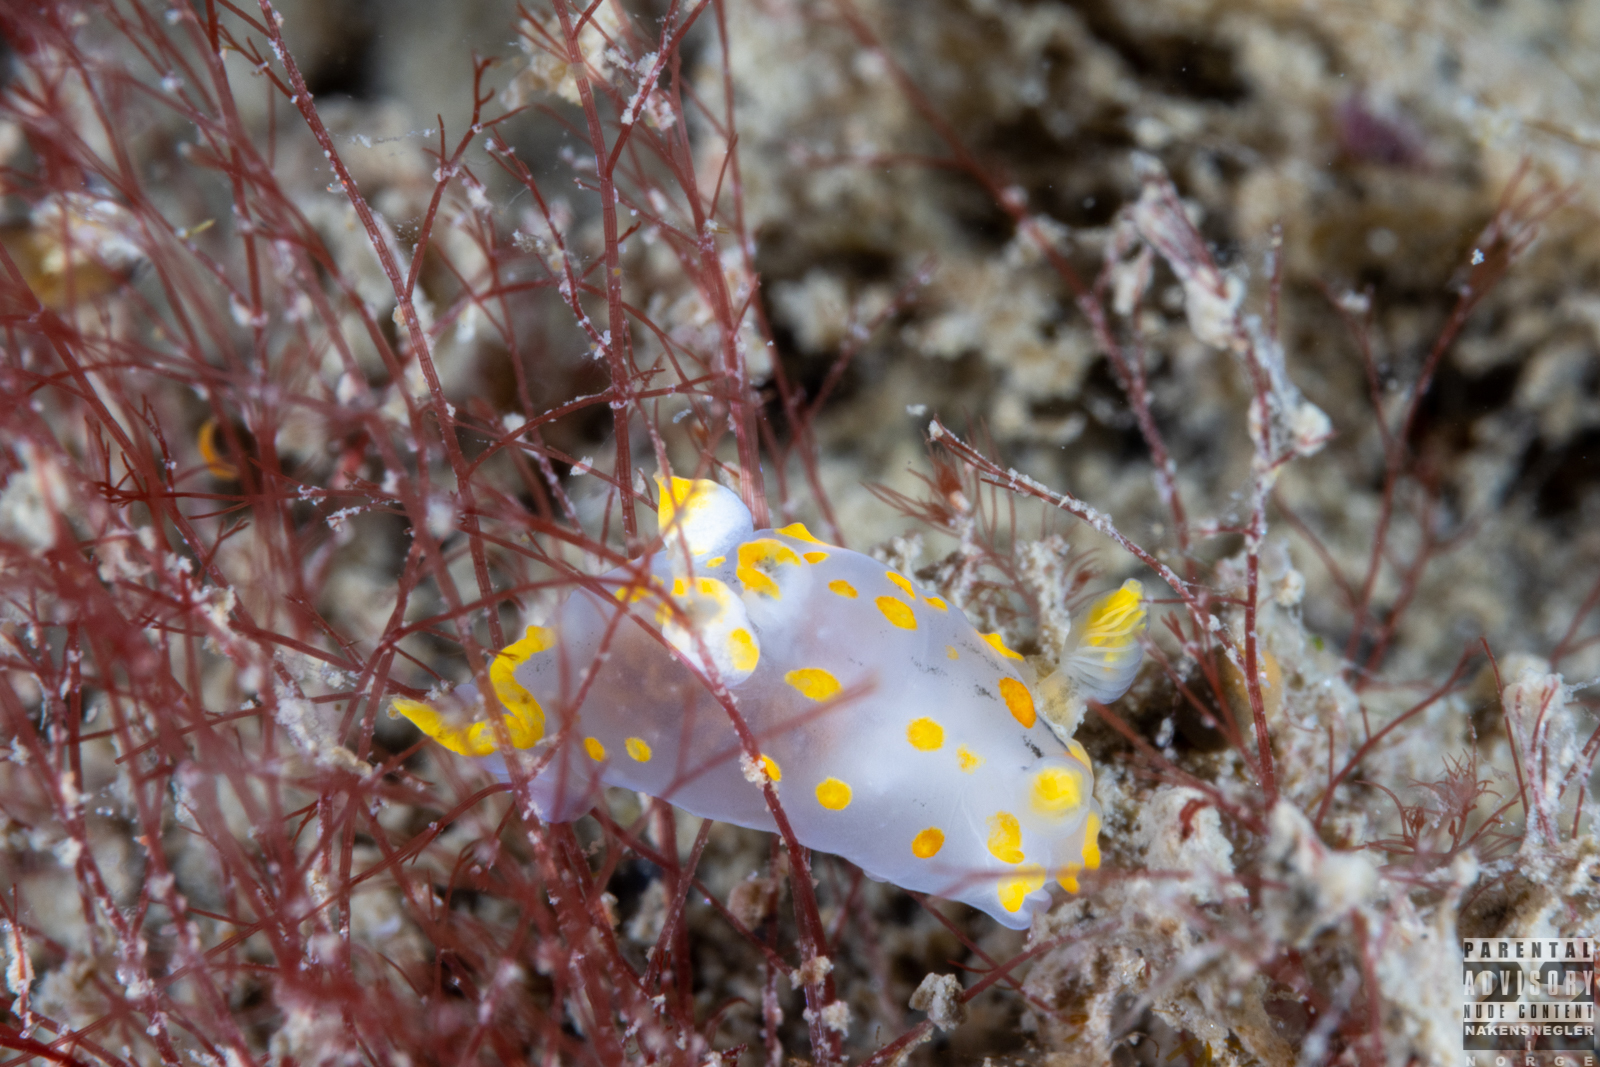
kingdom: Animalia
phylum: Mollusca
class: Gastropoda
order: Nudibranchia
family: Polyceridae
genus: Polycera
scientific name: Polycera quadrilineata
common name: Four-striped polycera
